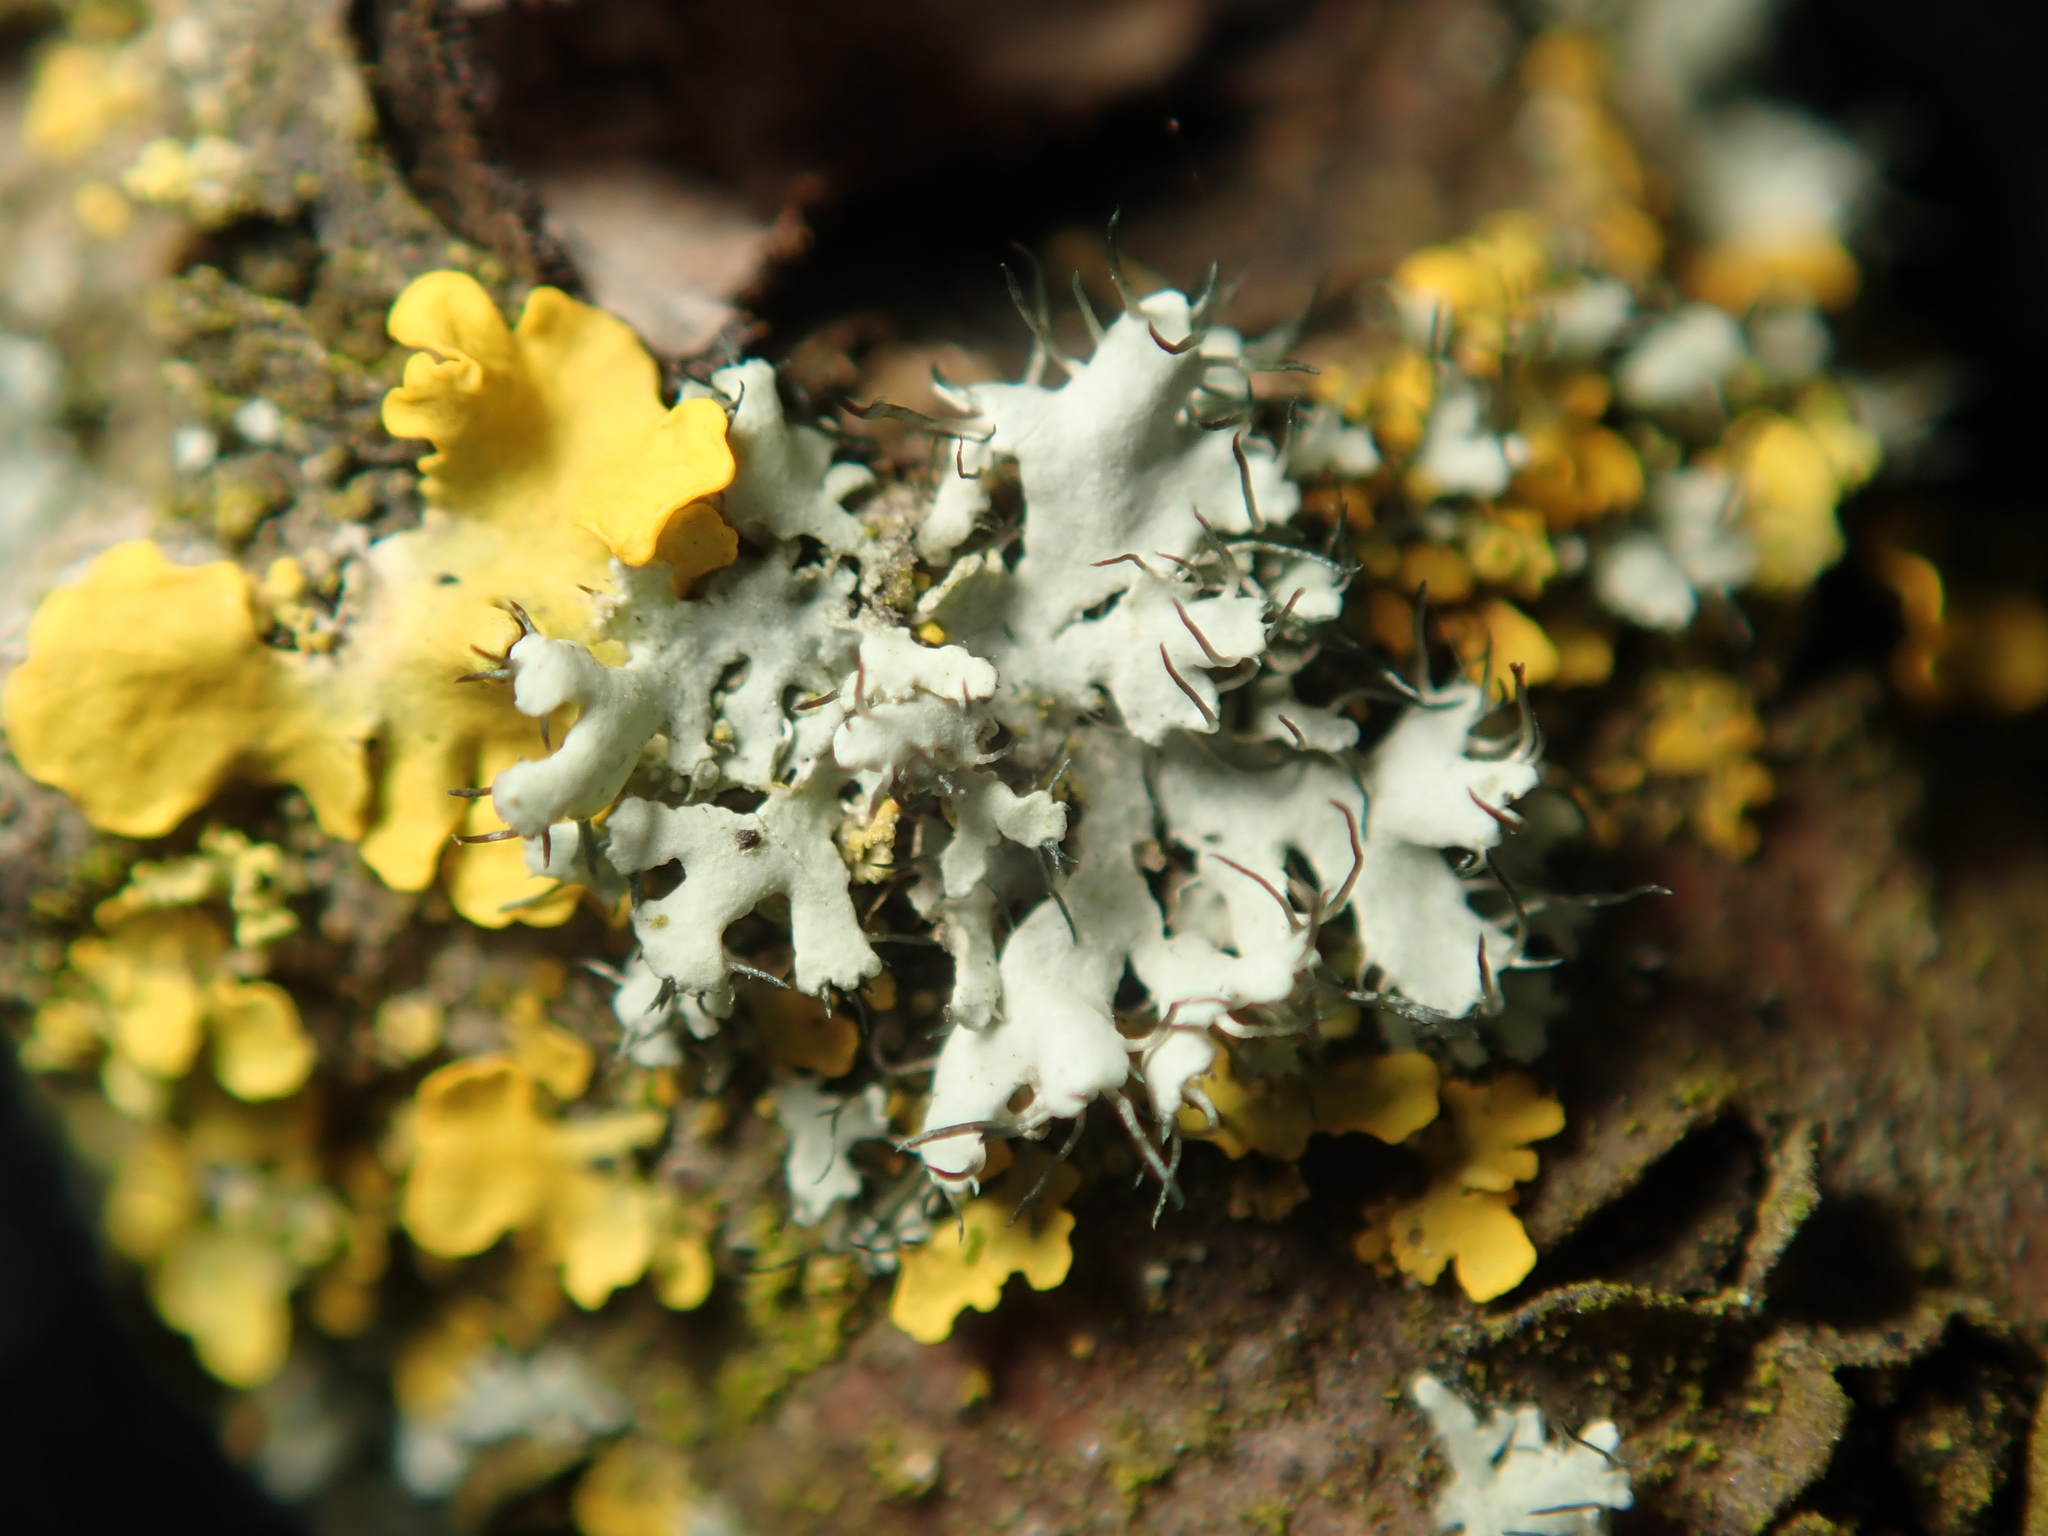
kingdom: Fungi
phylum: Ascomycota
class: Lecanoromycetes
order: Caliciales
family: Physciaceae
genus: Physcia
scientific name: Physcia adscendens
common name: Hooded rosette lichen
